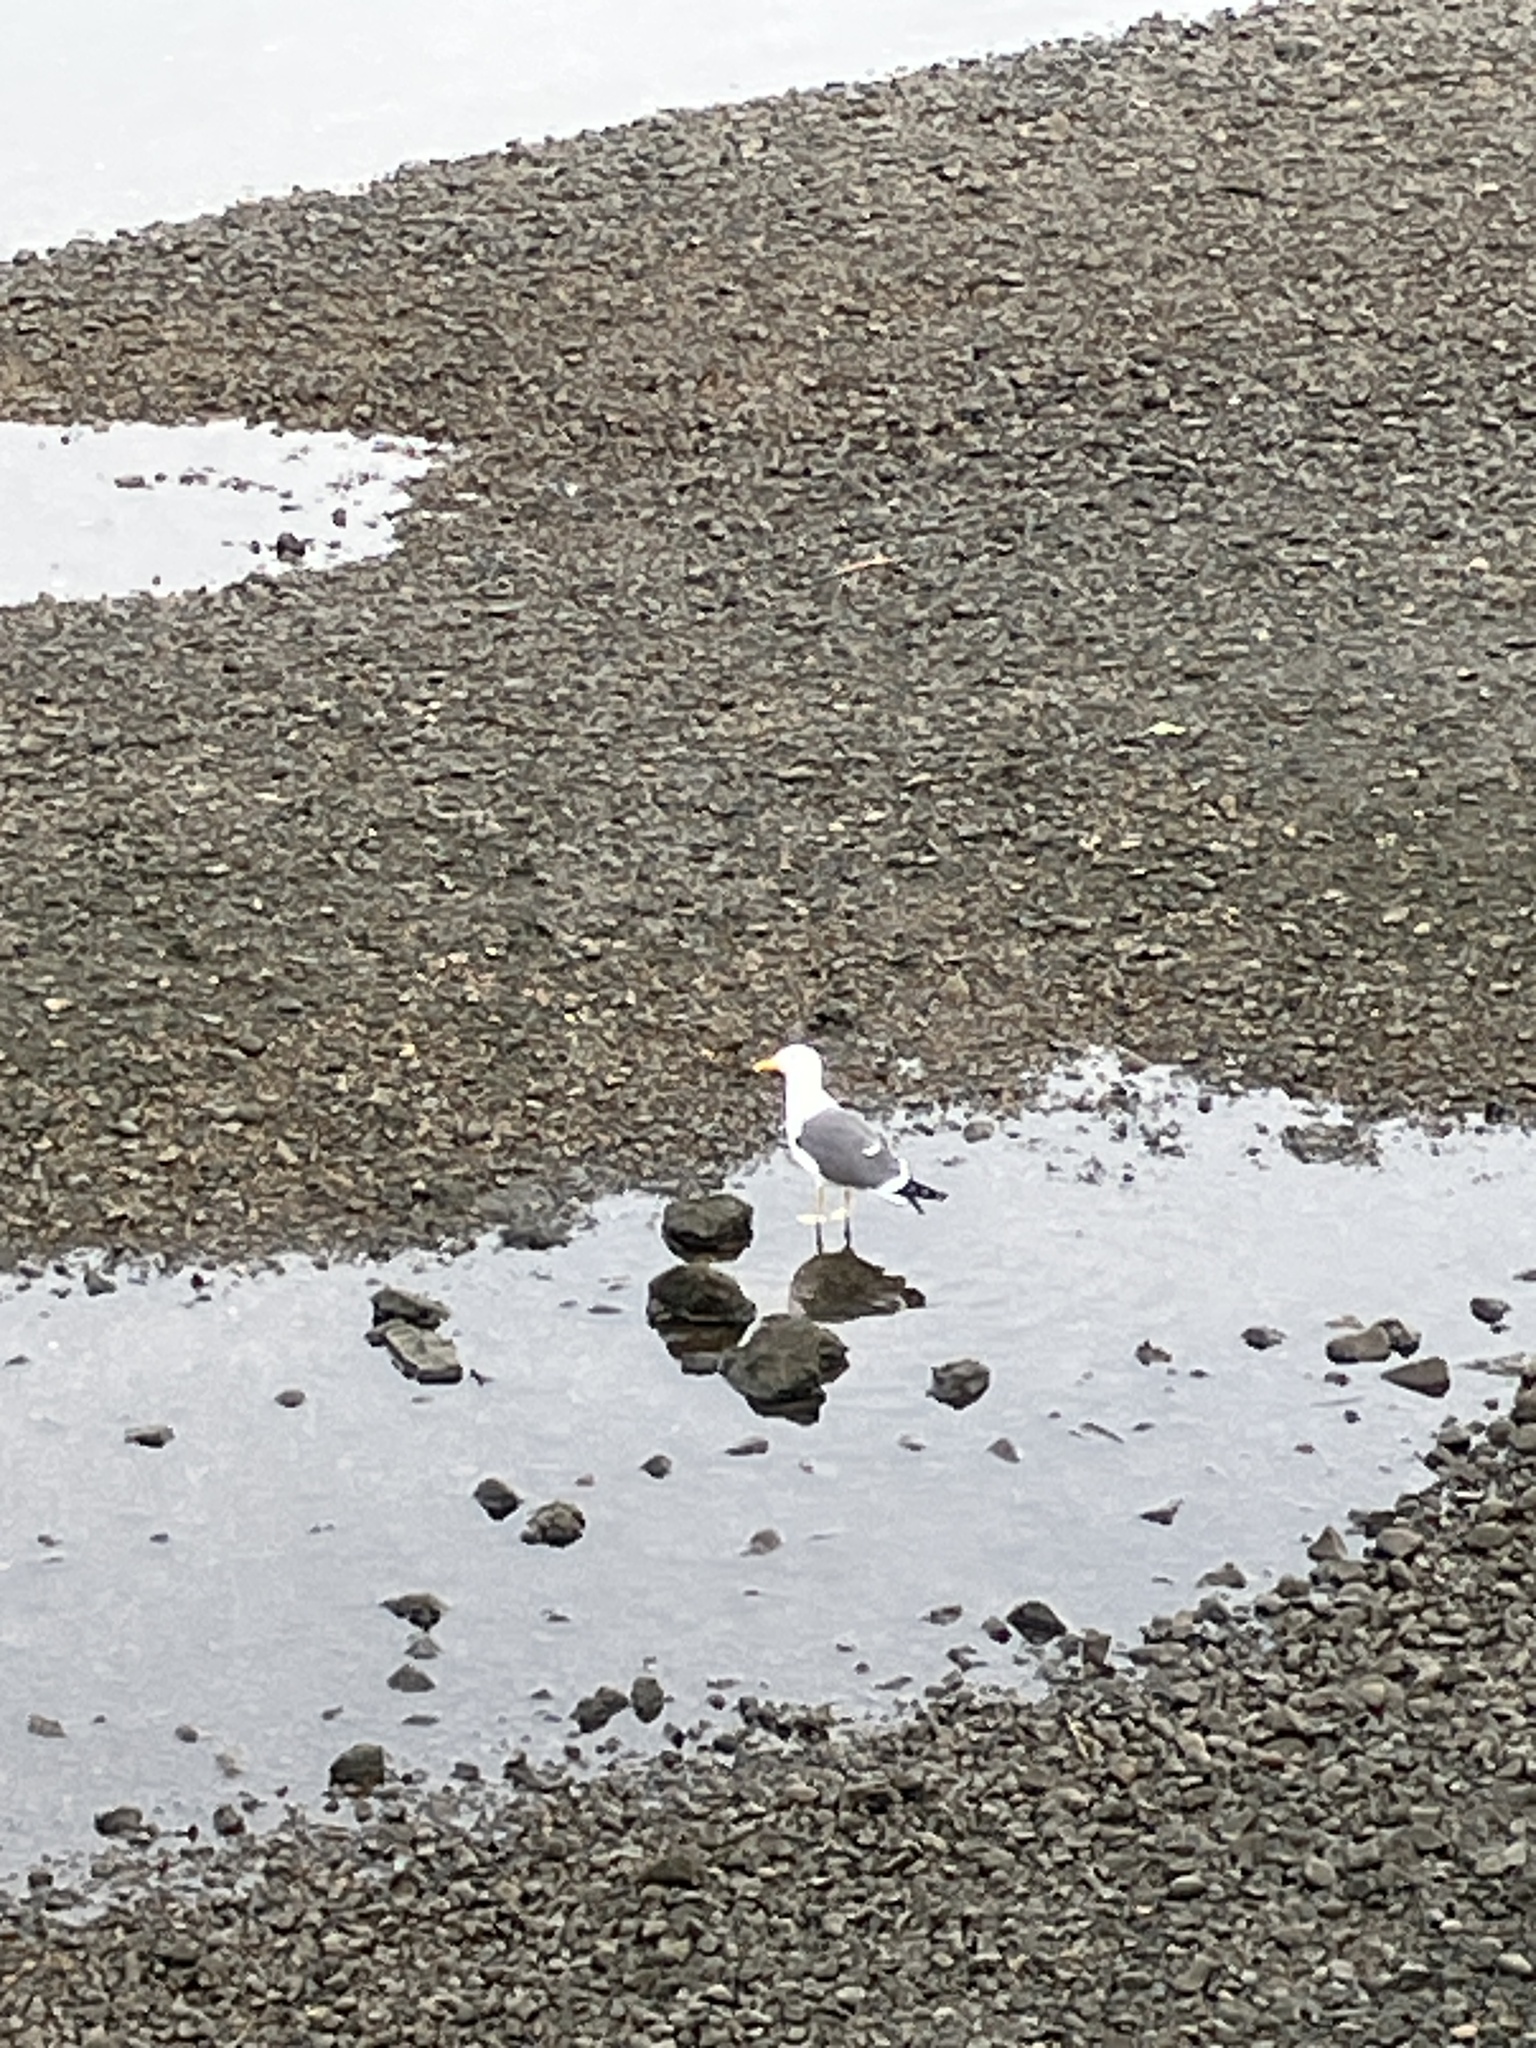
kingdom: Animalia
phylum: Chordata
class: Aves
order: Charadriiformes
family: Laridae
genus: Larus
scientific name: Larus fuscus
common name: Lesser black-backed gull
